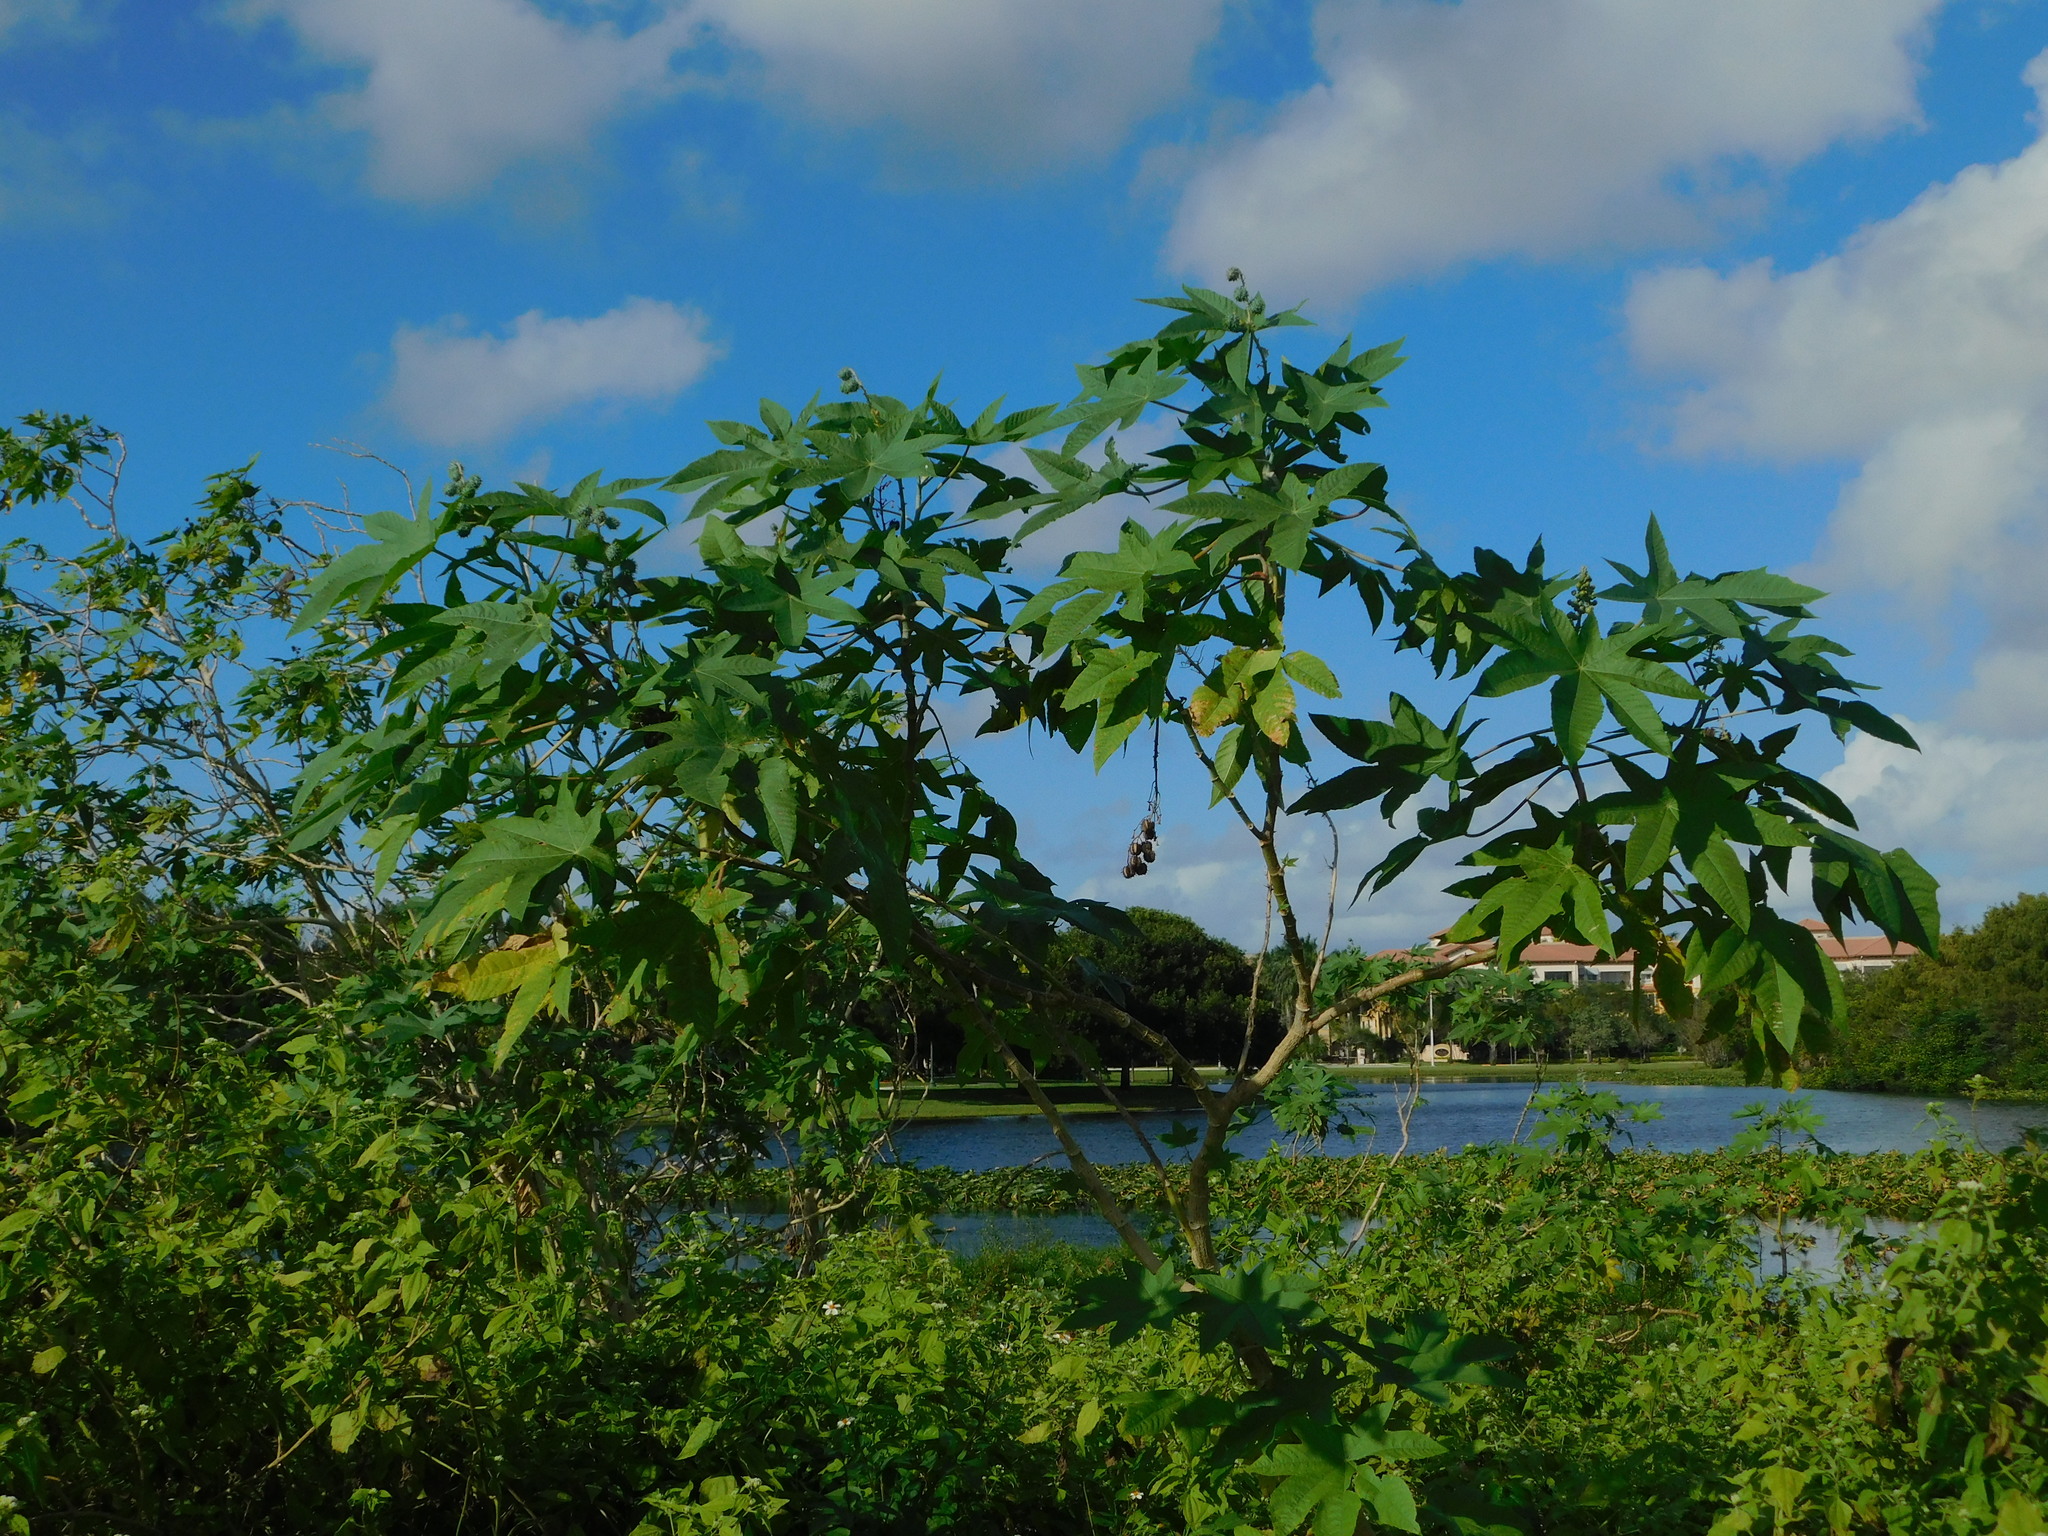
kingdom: Plantae
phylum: Tracheophyta
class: Magnoliopsida
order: Malpighiales
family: Euphorbiaceae
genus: Ricinus
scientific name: Ricinus communis
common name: Castor-oil-plant
